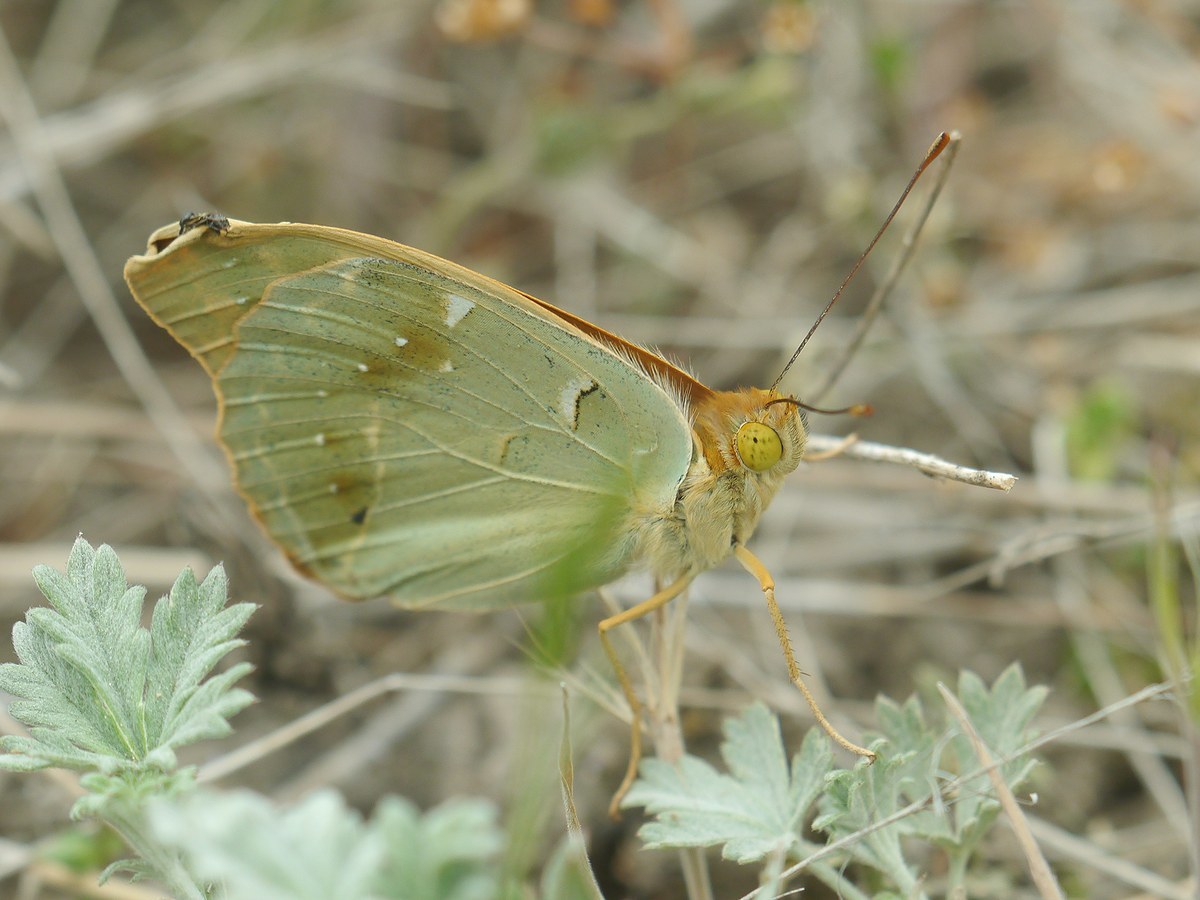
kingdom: Animalia
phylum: Arthropoda
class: Insecta
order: Lepidoptera
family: Nymphalidae
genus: Damora
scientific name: Damora pandora
